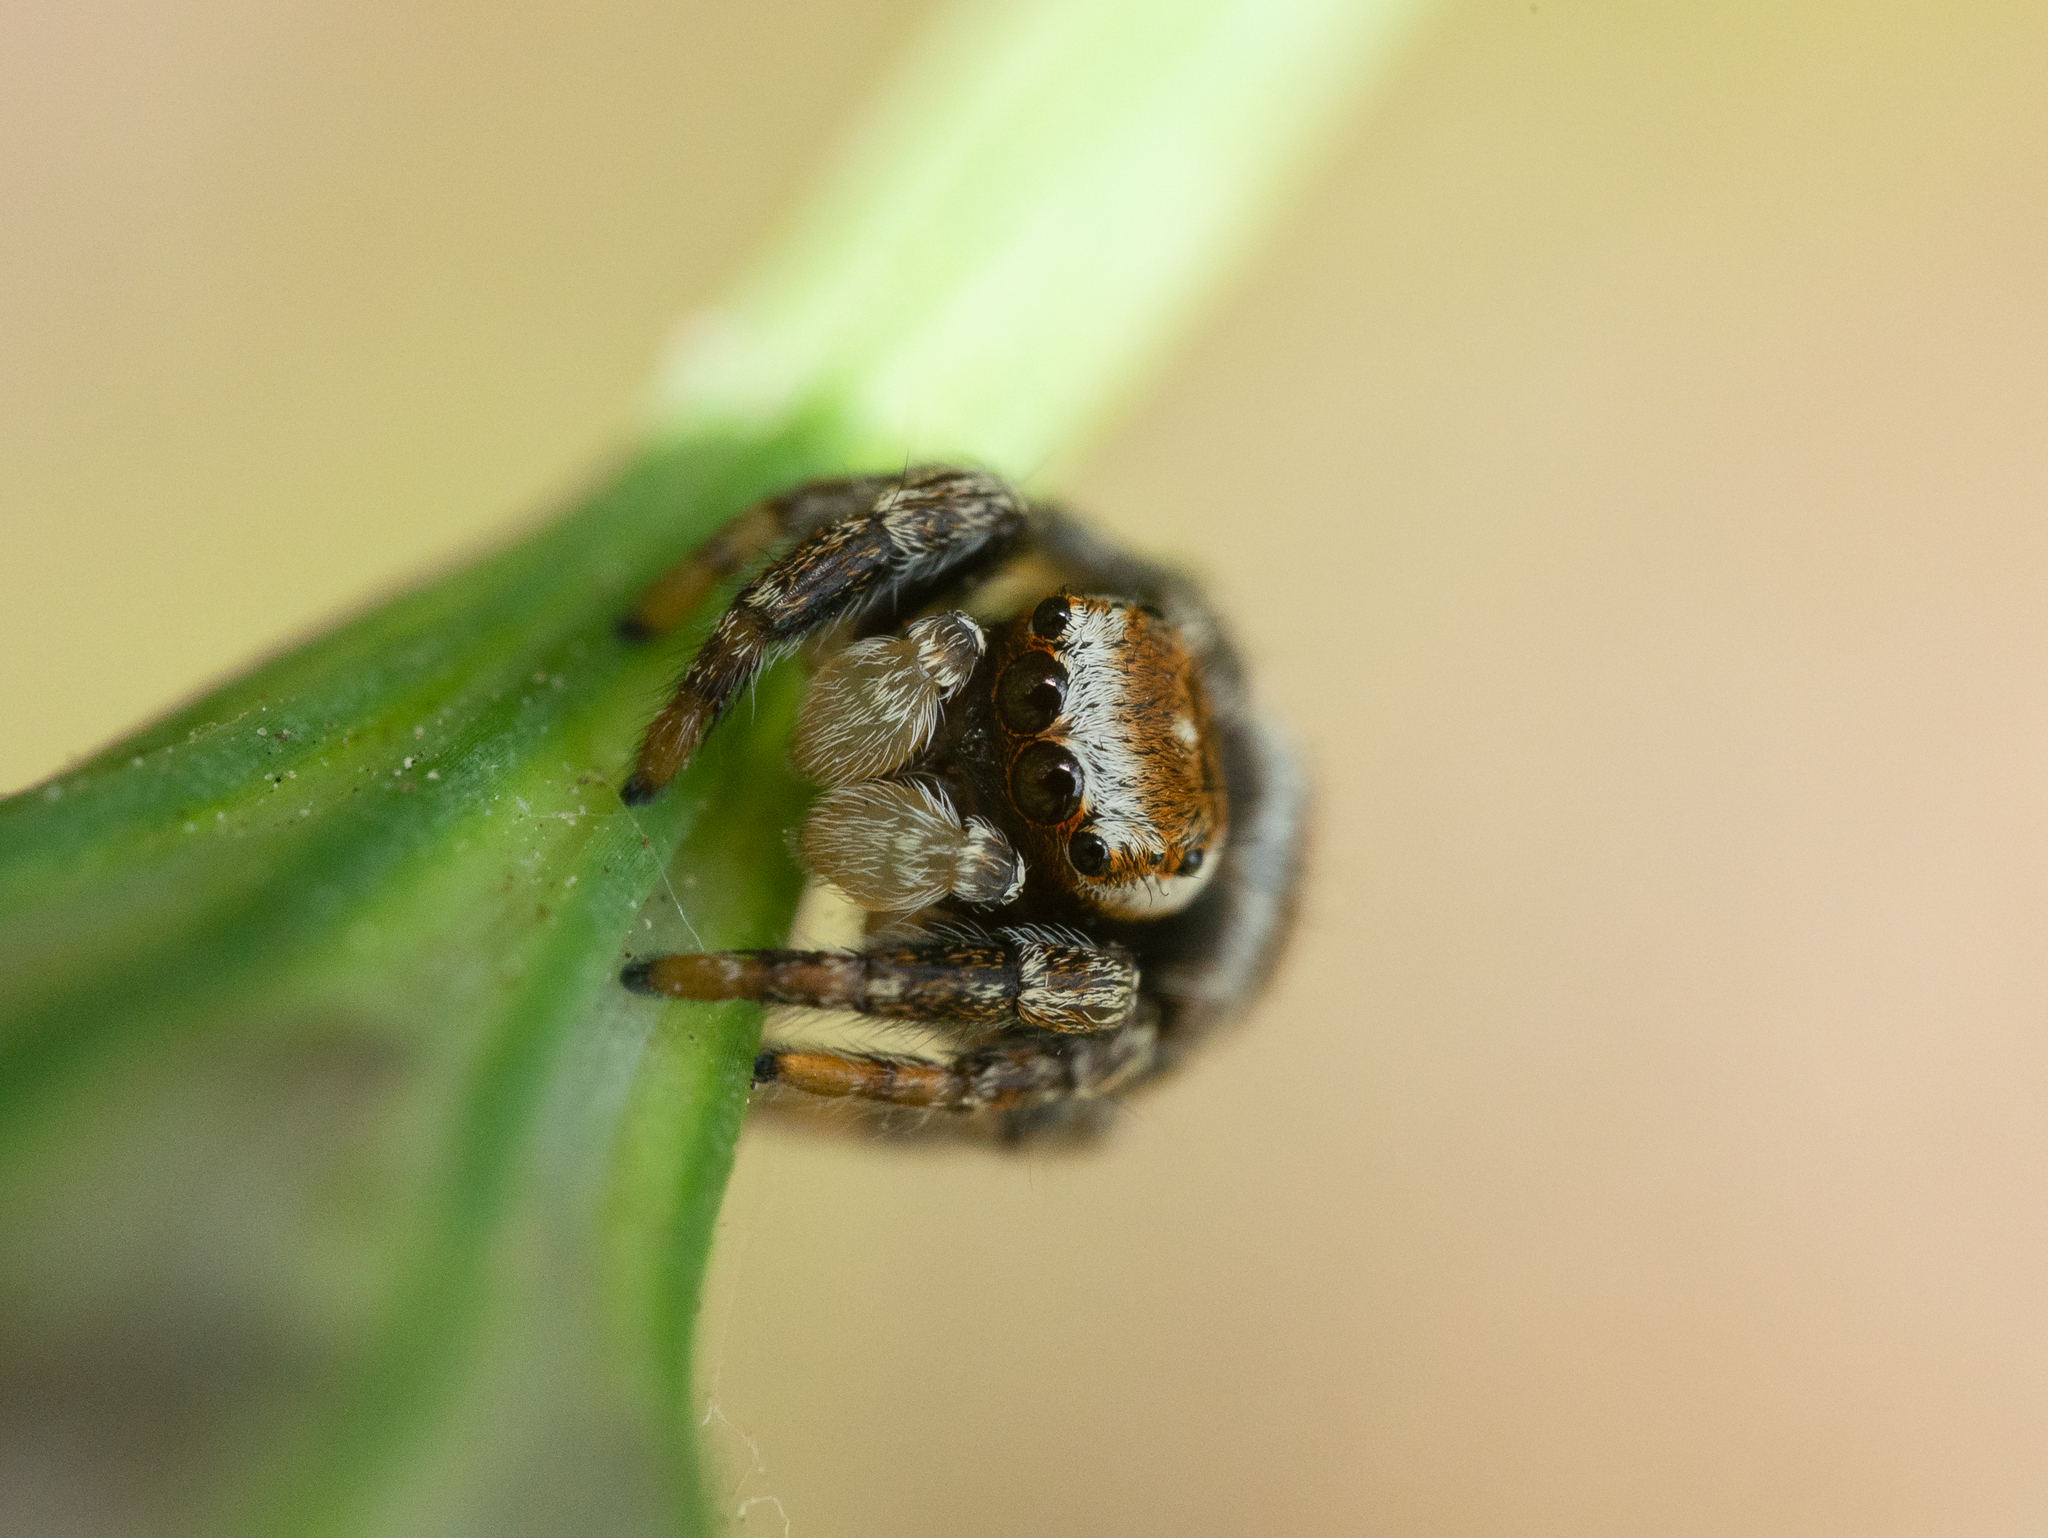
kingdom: Animalia
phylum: Arthropoda
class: Arachnida
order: Araneae
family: Salticidae
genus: Evarcha
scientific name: Evarcha falcata
